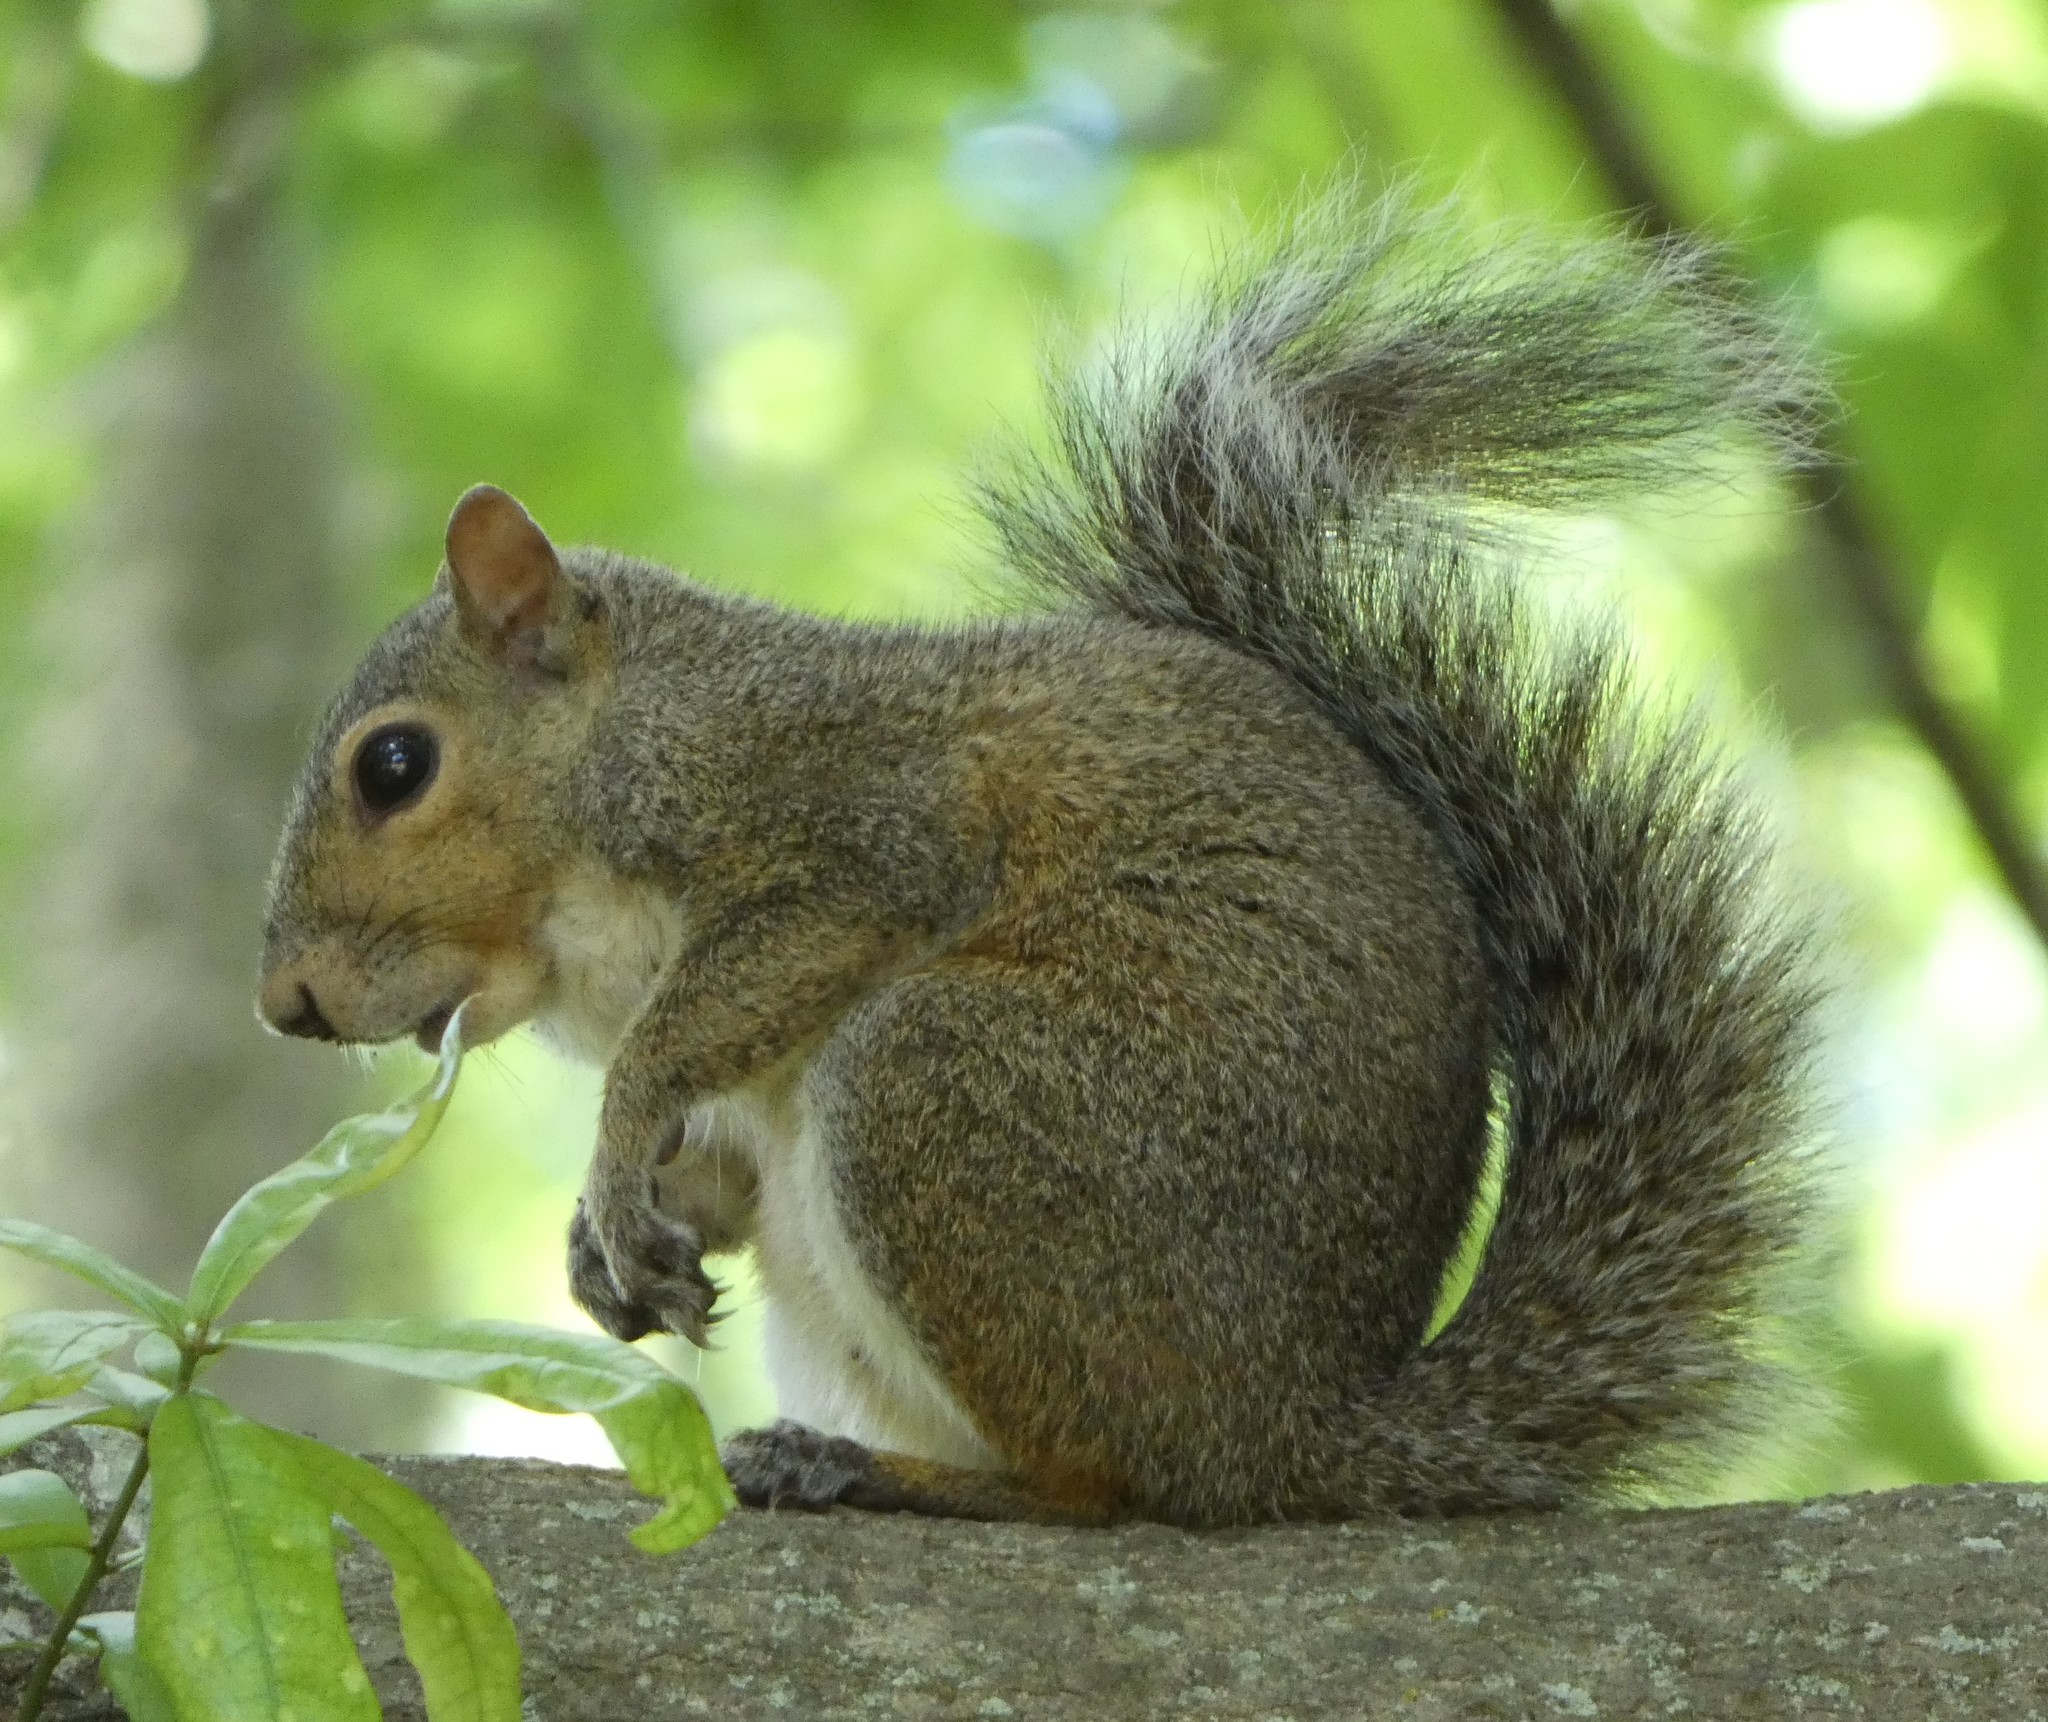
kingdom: Animalia
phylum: Chordata
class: Mammalia
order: Rodentia
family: Sciuridae
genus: Sciurus
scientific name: Sciurus carolinensis
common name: Eastern gray squirrel
